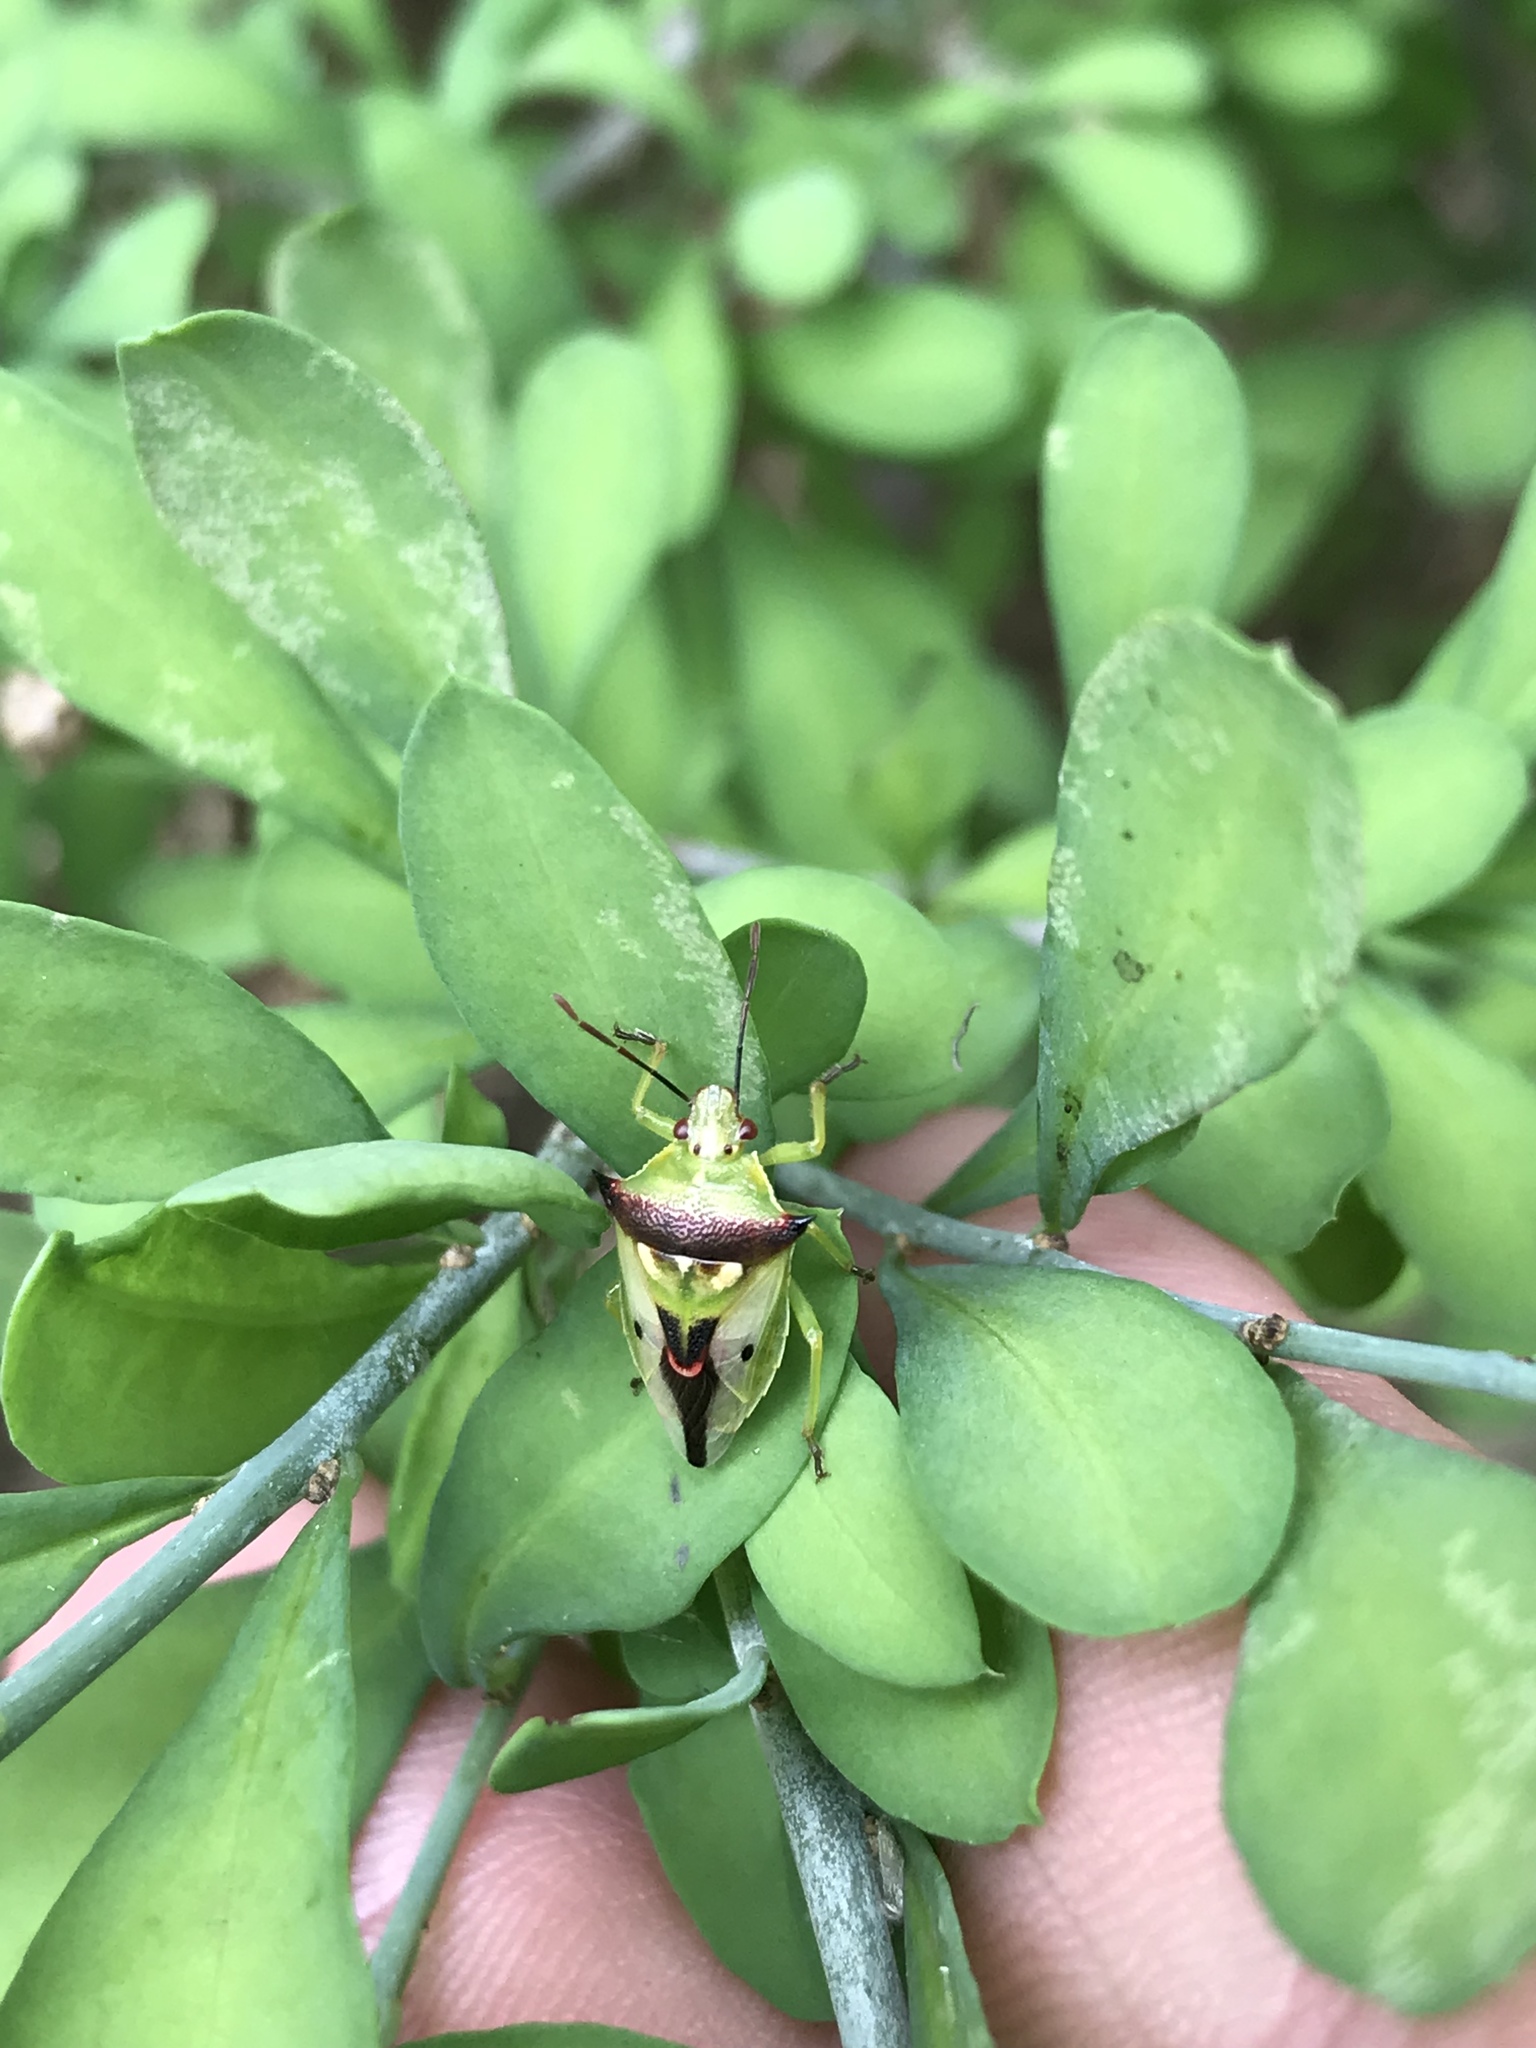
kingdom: Animalia
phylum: Arthropoda
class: Insecta
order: Hemiptera
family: Pentatomidae
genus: Tylospilus
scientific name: Tylospilus acutissimus
